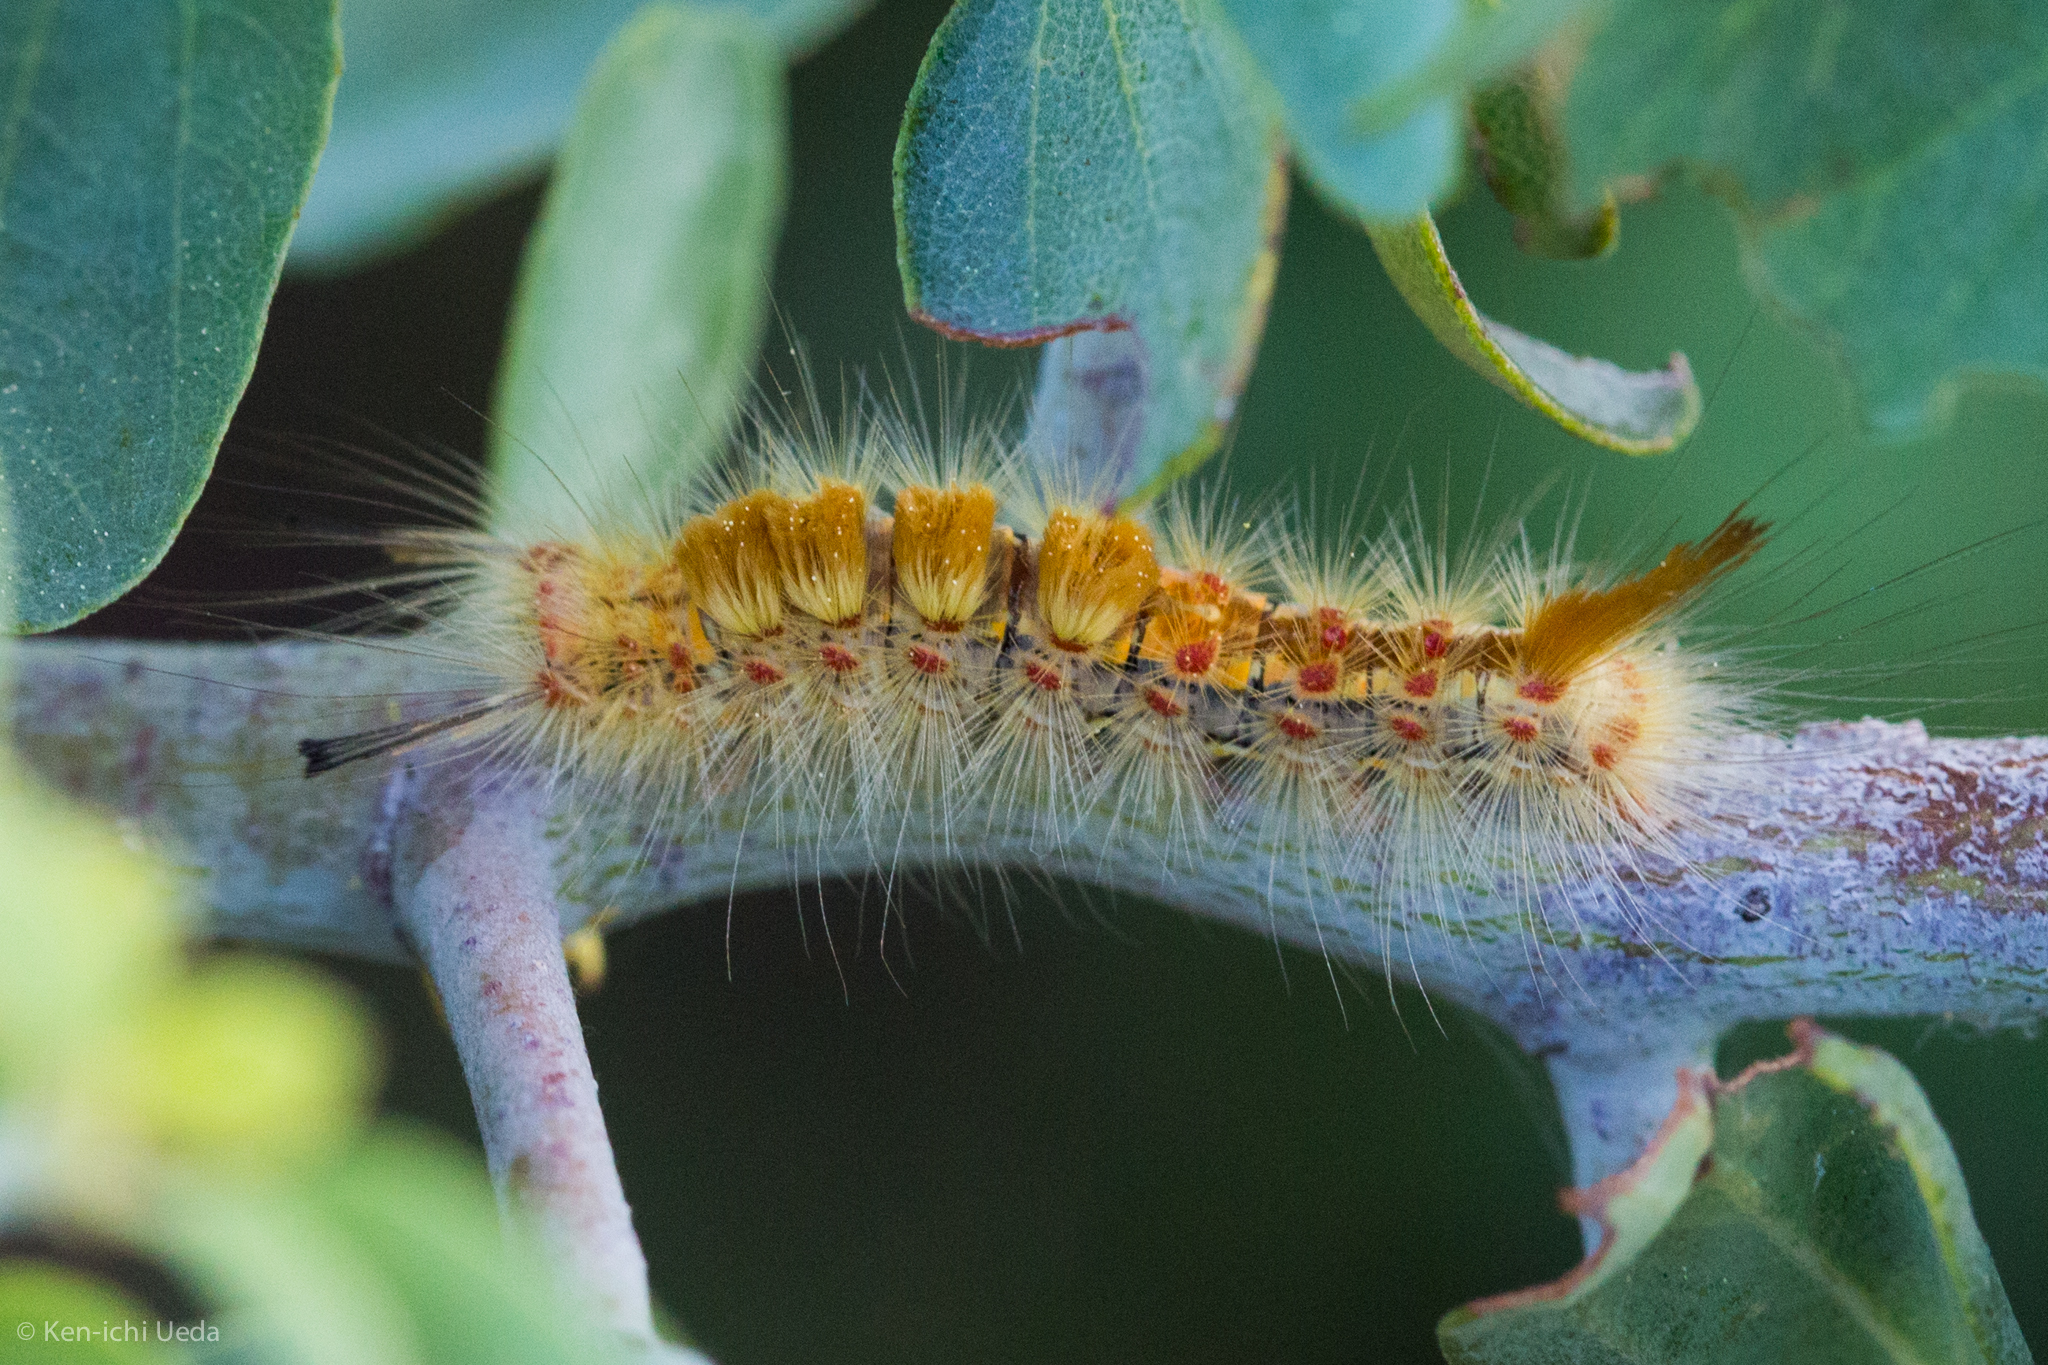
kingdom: Animalia
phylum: Arthropoda
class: Insecta
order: Lepidoptera
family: Erebidae
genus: Orgyia
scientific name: Orgyia
